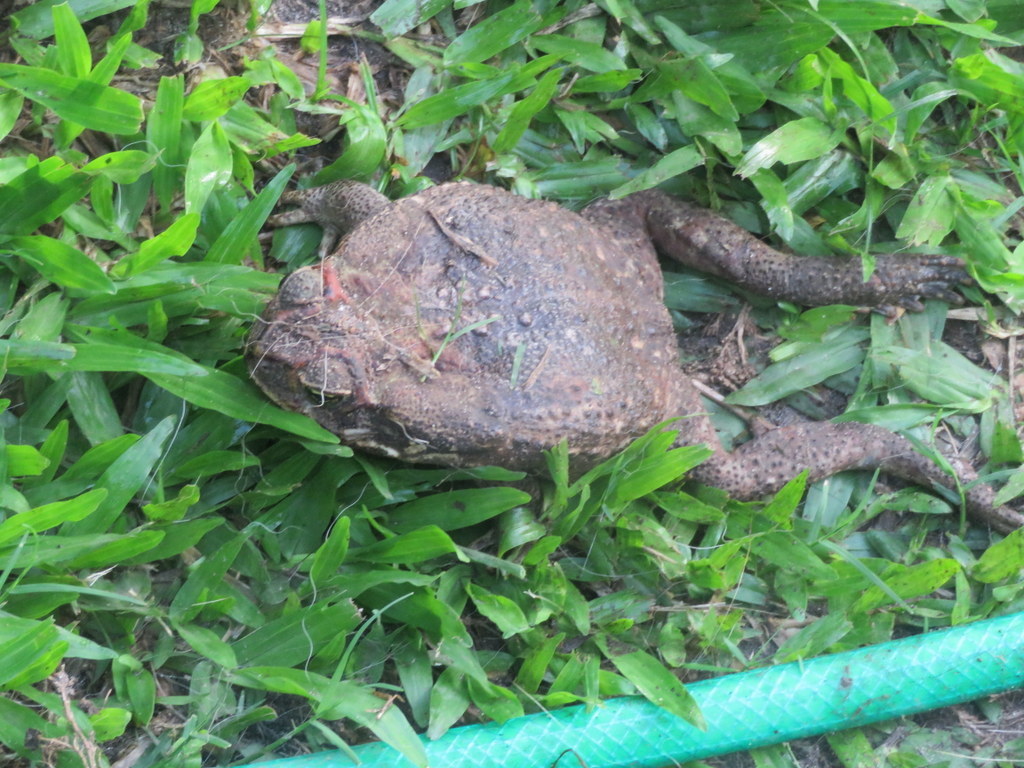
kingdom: Animalia
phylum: Chordata
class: Amphibia
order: Anura
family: Bufonidae
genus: Rhinella
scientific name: Rhinella diptycha
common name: Cope's toad
